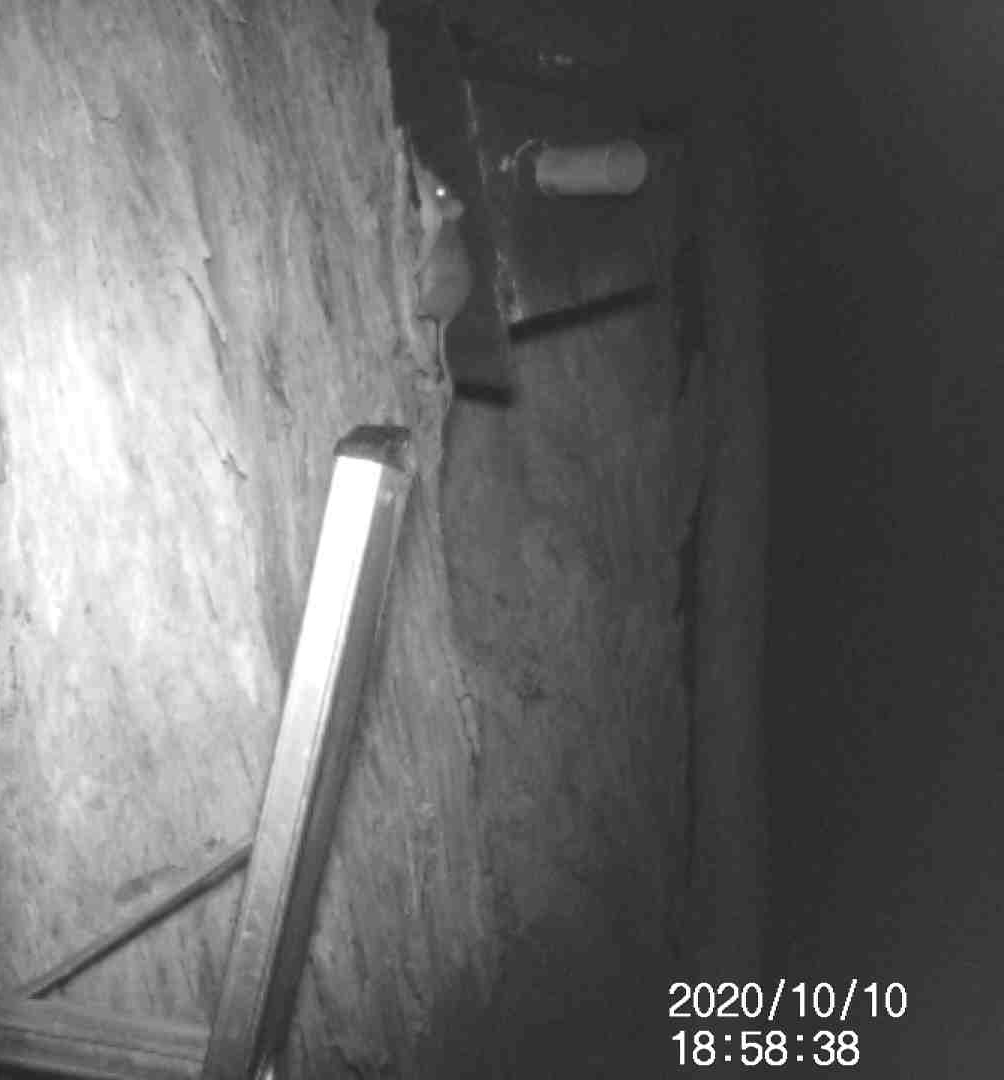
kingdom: Animalia
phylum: Chordata
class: Mammalia
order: Dasyuromorphia
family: Dasyuridae
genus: Antechinus
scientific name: Antechinus agilis
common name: Agile antechinus
